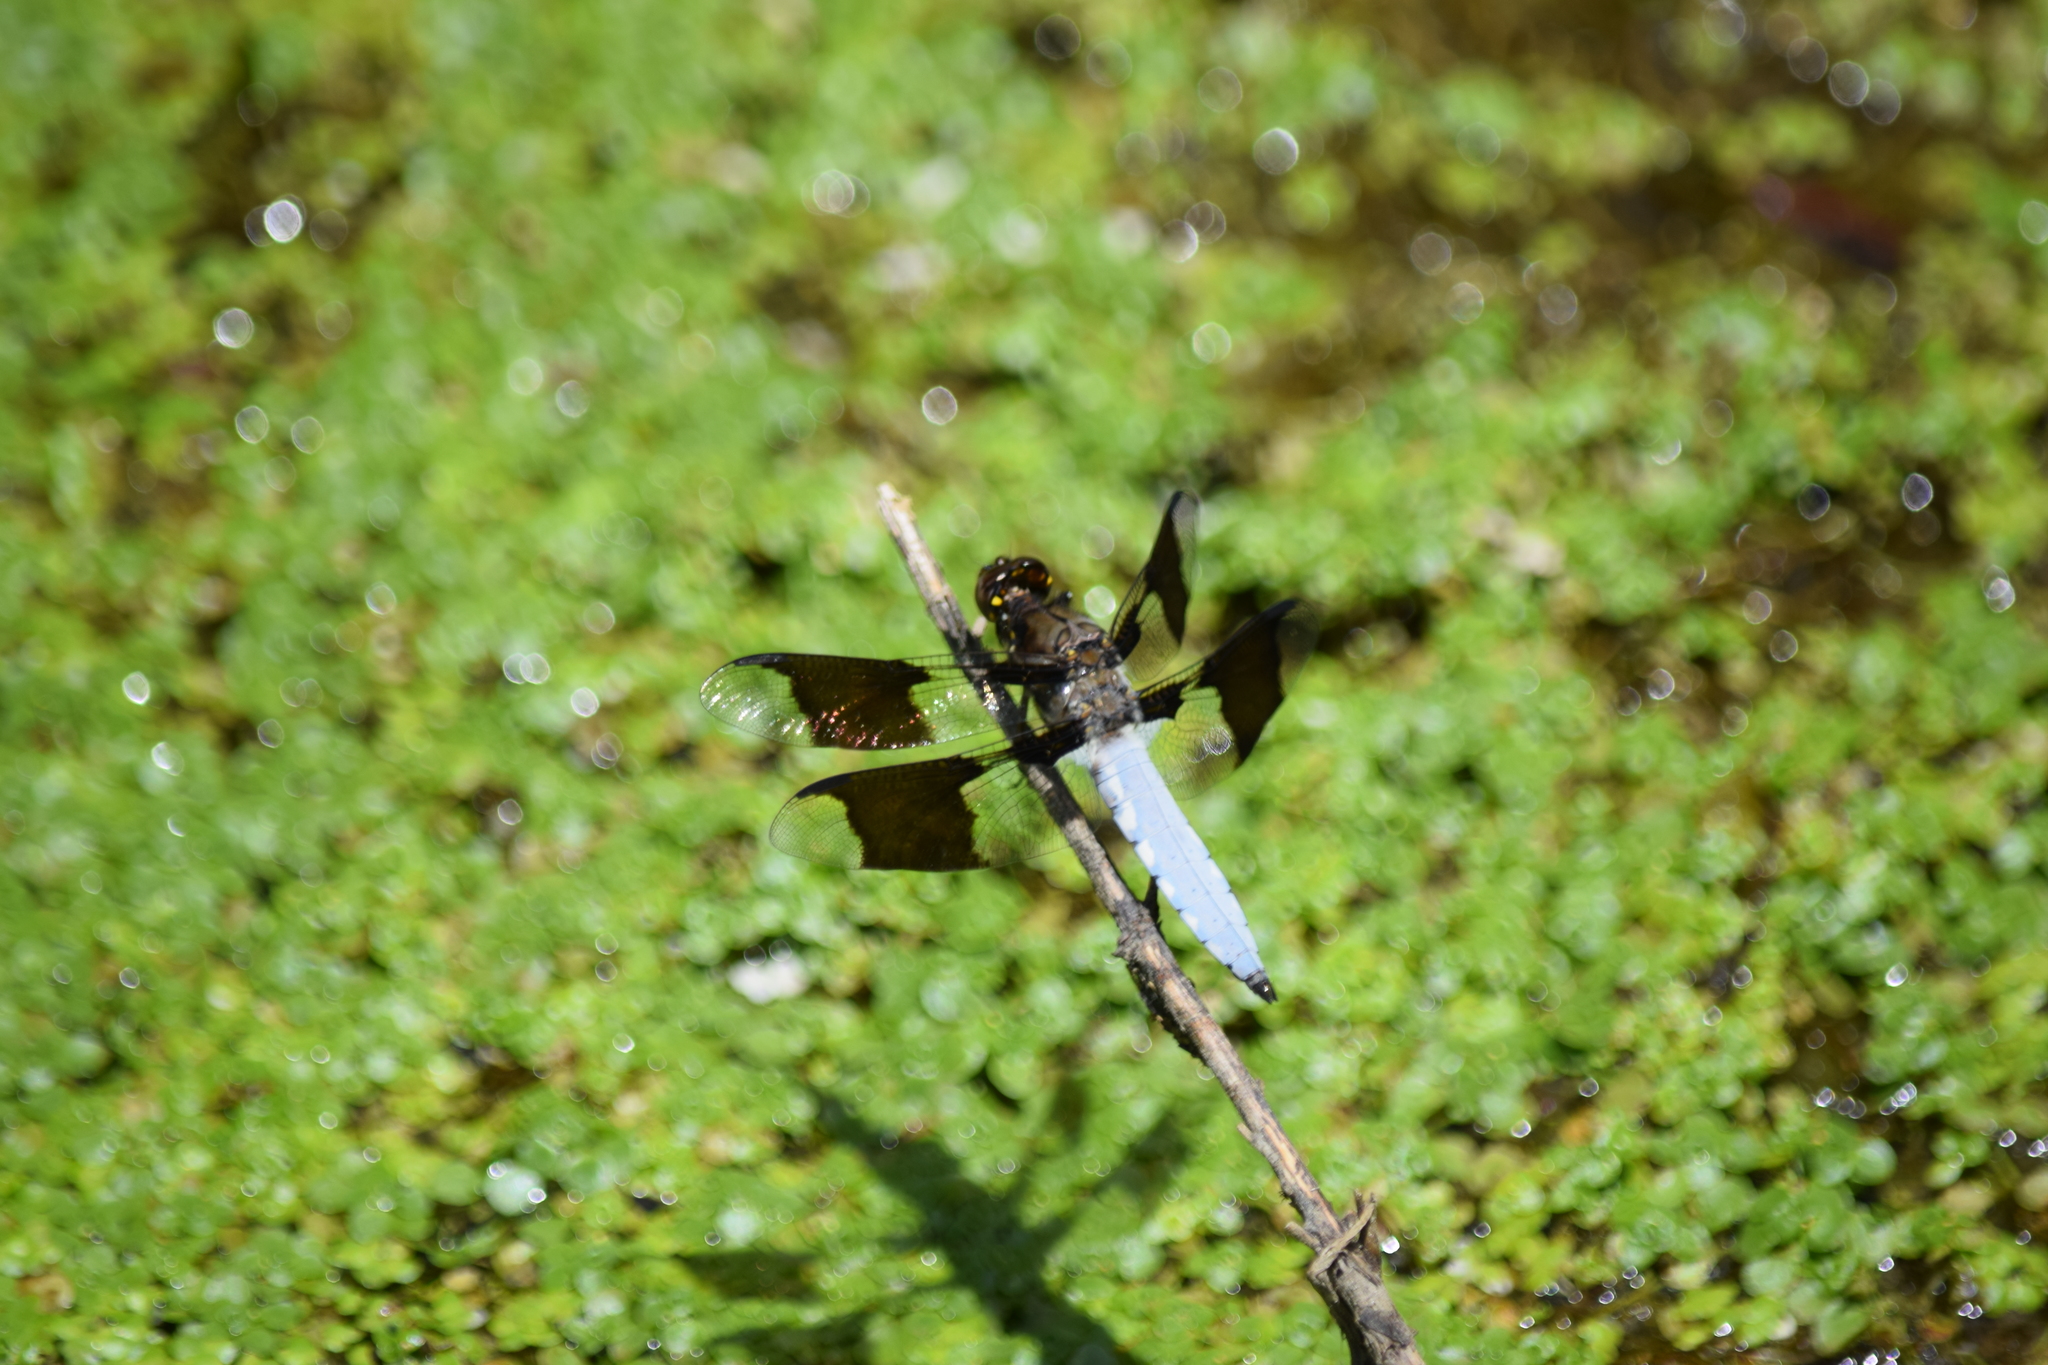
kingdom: Animalia
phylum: Arthropoda
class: Insecta
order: Odonata
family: Libellulidae
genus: Plathemis
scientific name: Plathemis lydia
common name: Common whitetail
